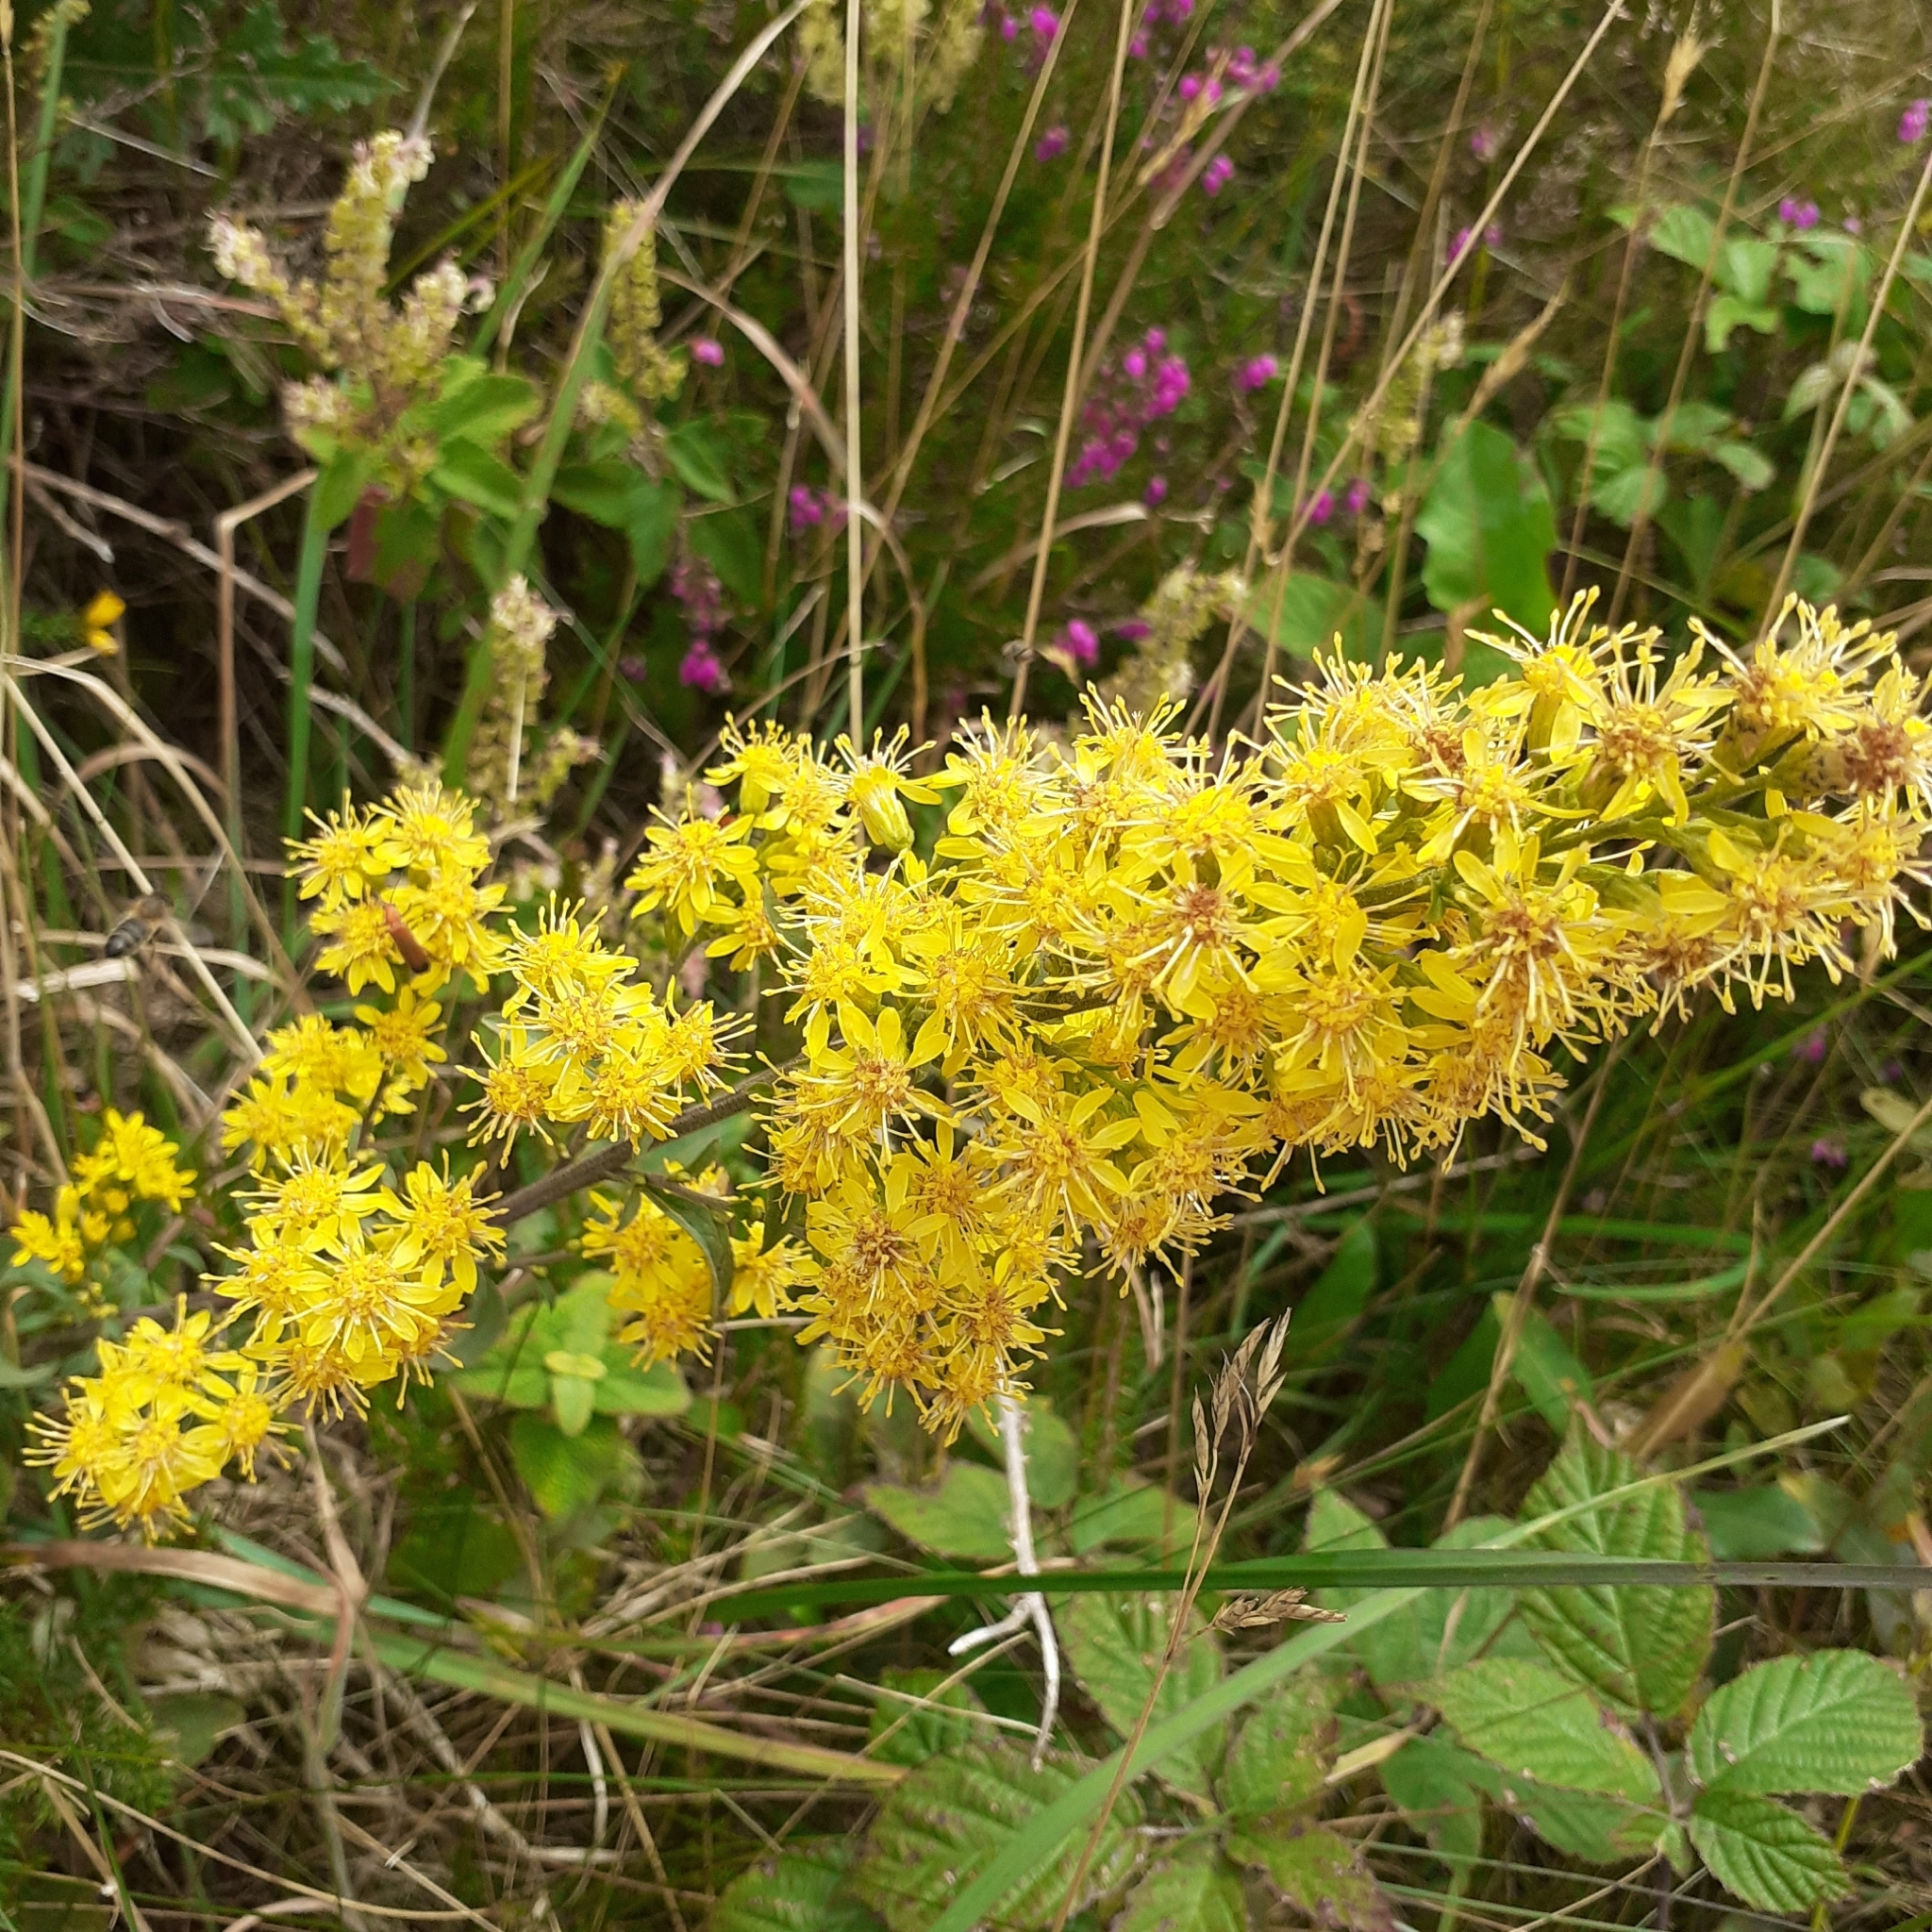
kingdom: Plantae
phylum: Tracheophyta
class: Magnoliopsida
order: Asterales
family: Asteraceae
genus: Solidago
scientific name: Solidago virgaurea
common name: Goldenrod
